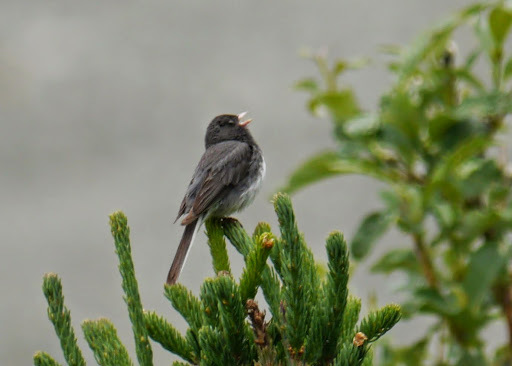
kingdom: Animalia
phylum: Chordata
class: Aves
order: Passeriformes
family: Passerellidae
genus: Junco
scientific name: Junco hyemalis
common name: Dark-eyed junco
